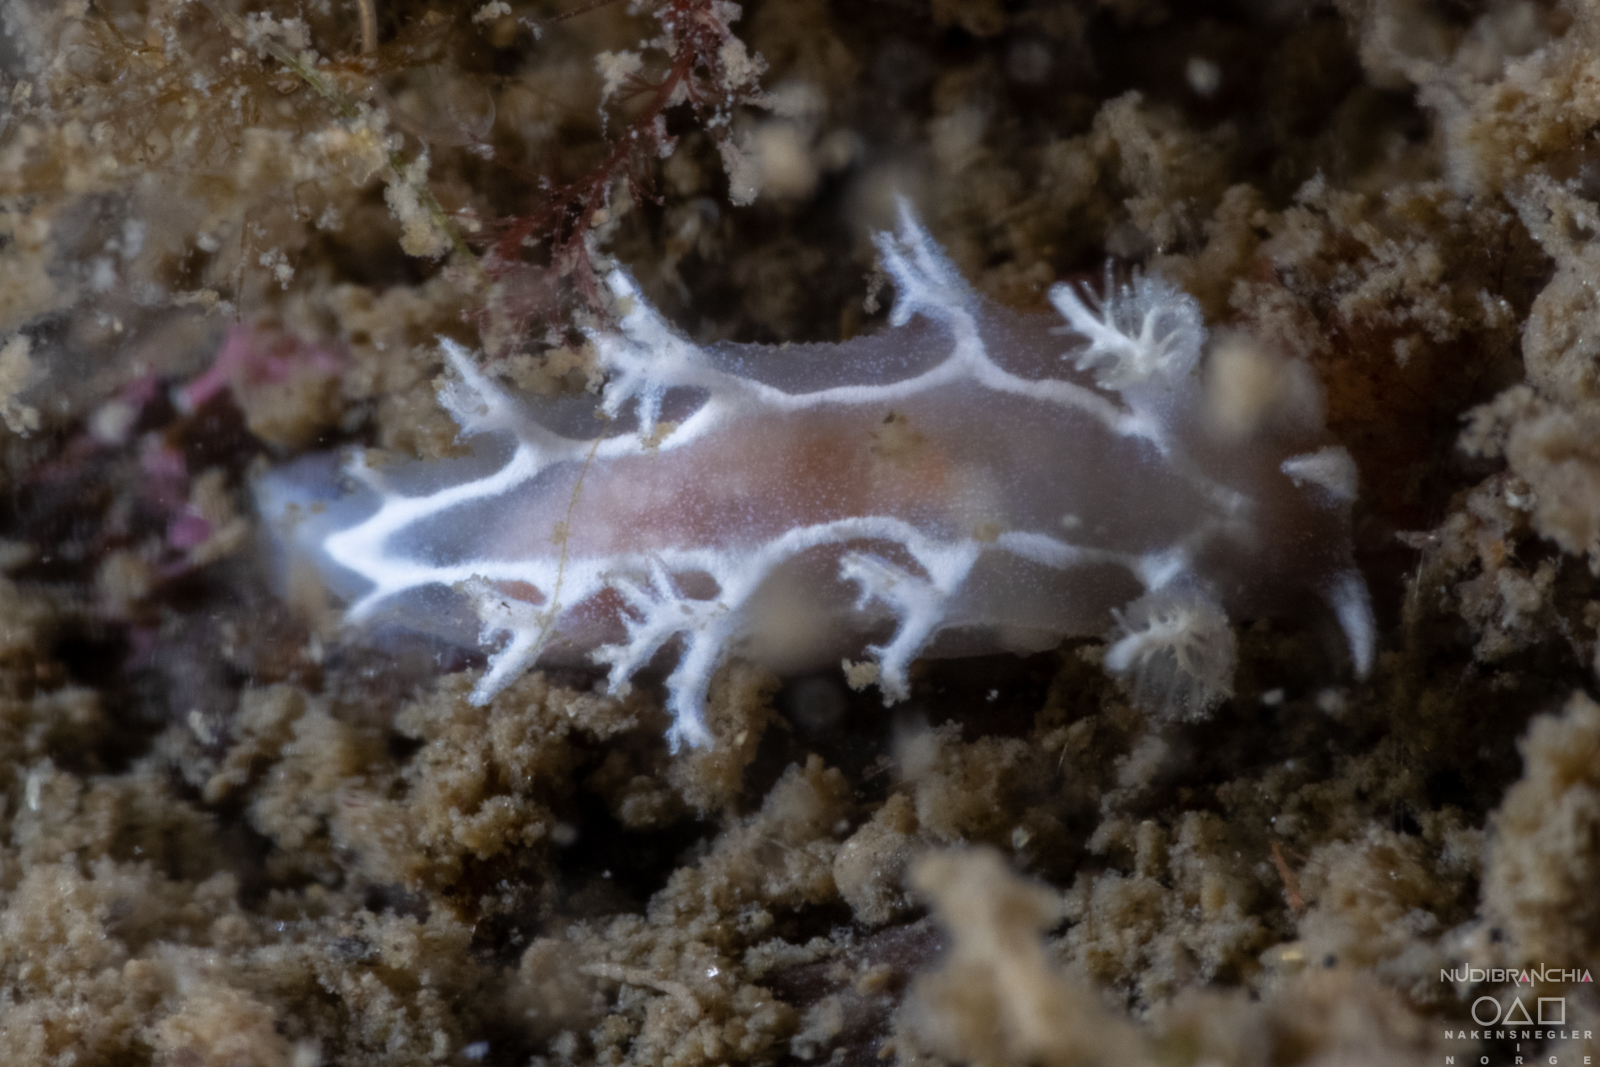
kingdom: Animalia
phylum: Mollusca
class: Gastropoda
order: Nudibranchia
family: Tritoniidae
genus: Duvaucelia
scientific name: Duvaucelia lineata
